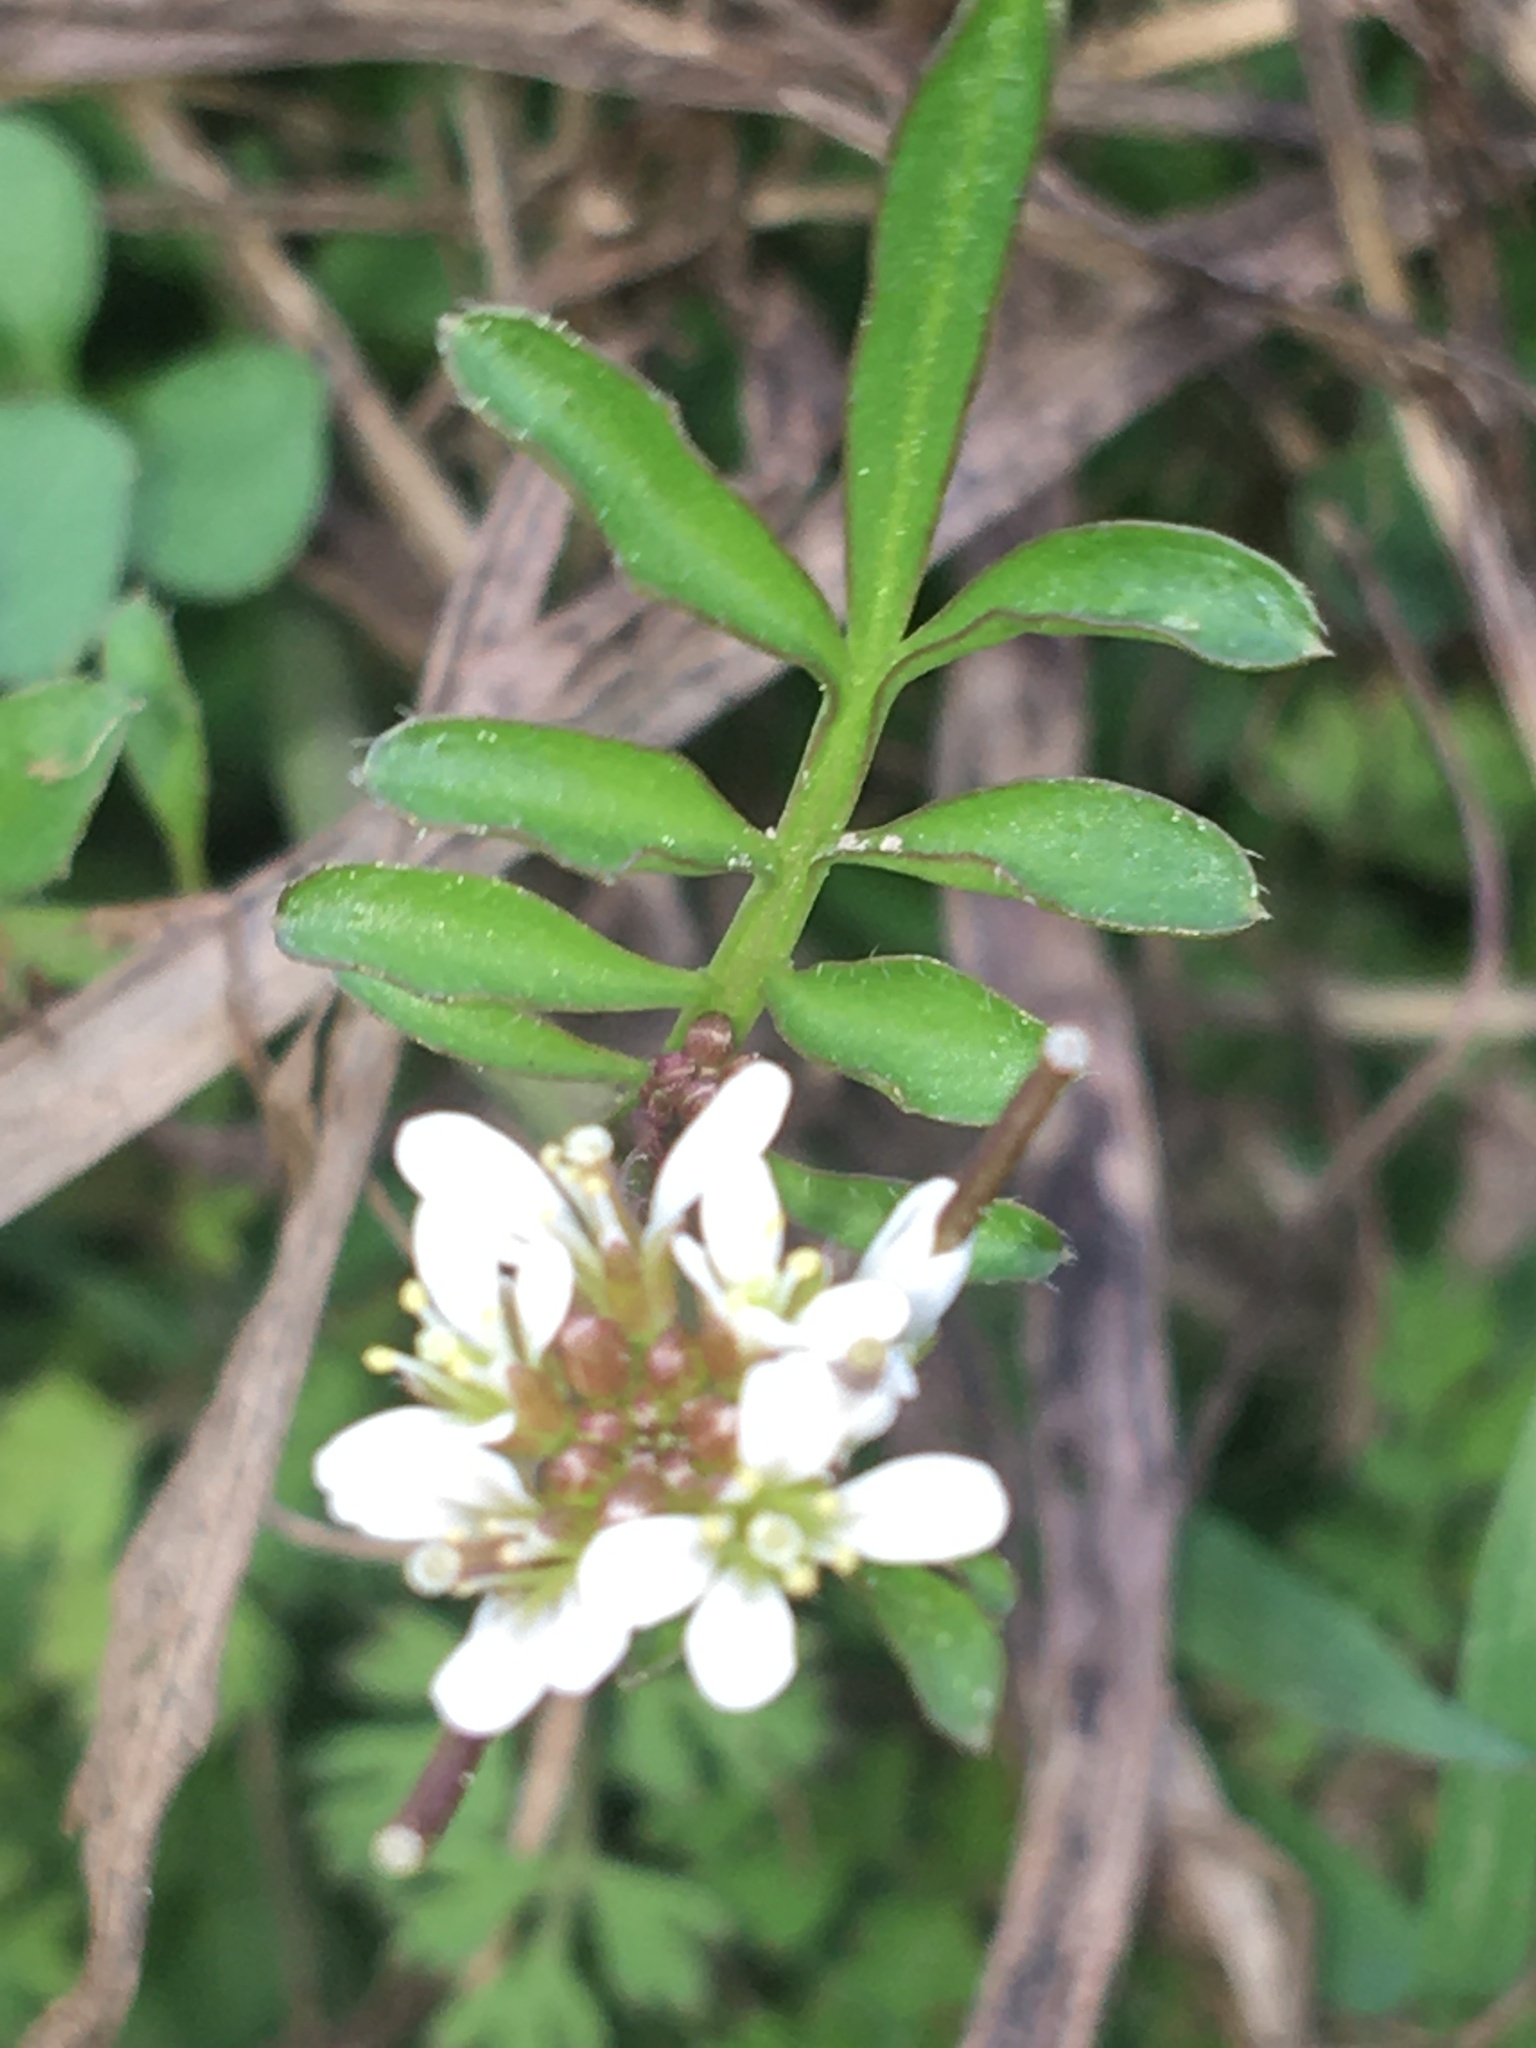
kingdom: Plantae
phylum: Tracheophyta
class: Magnoliopsida
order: Brassicales
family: Brassicaceae
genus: Cardamine
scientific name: Cardamine hirsuta
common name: Hairy bittercress
